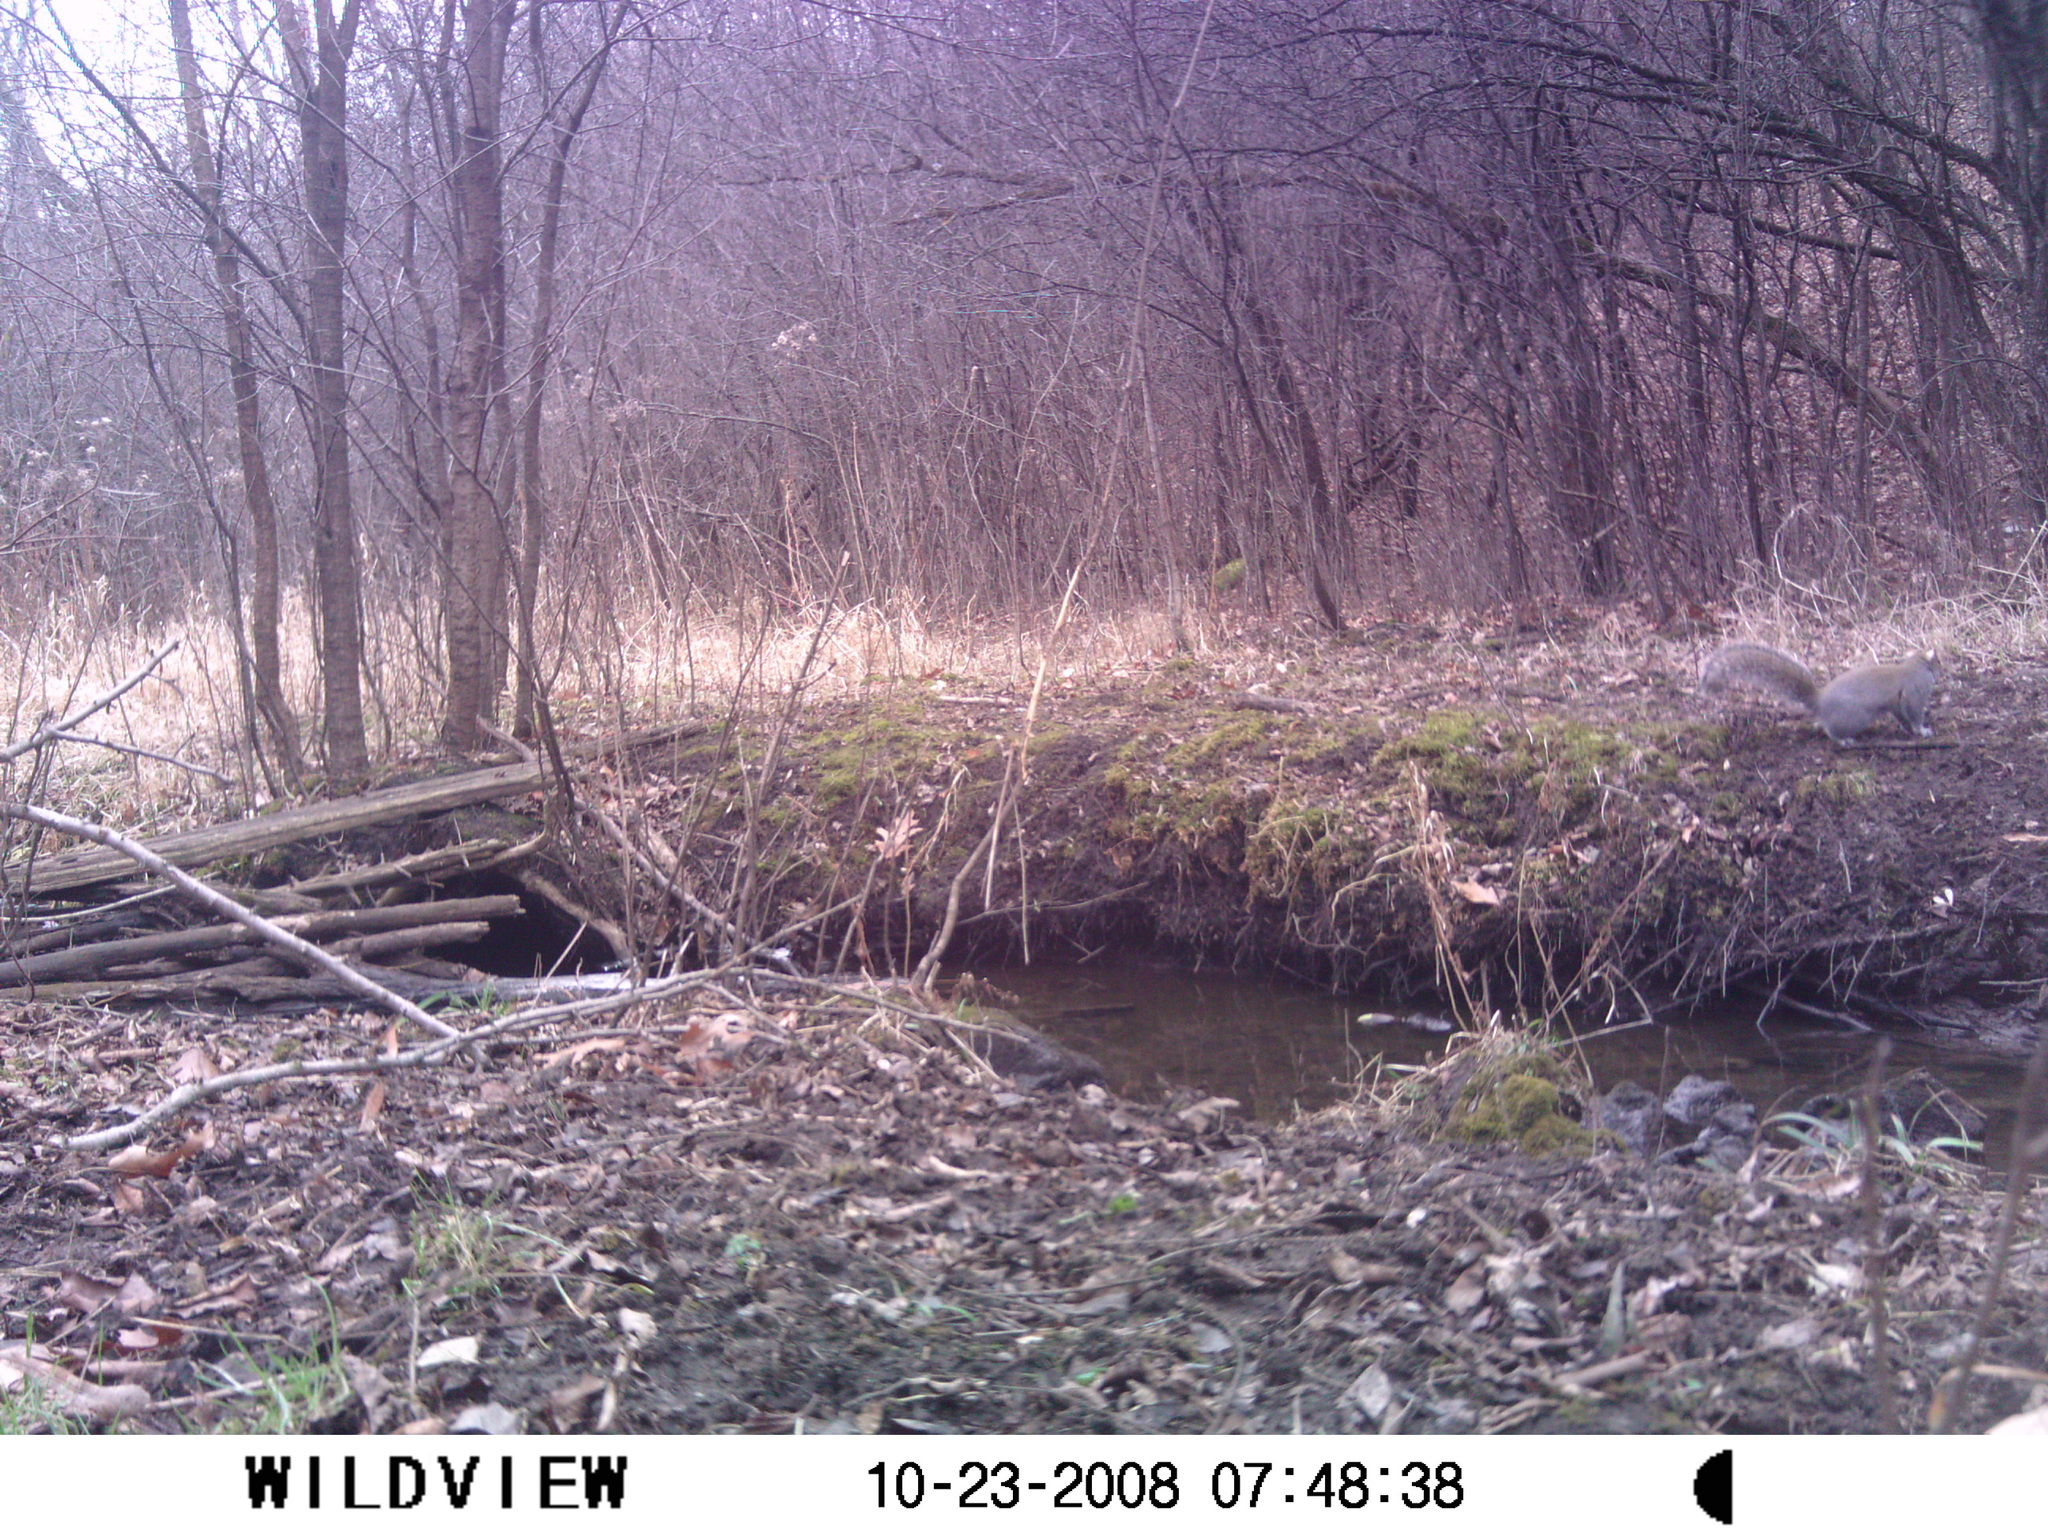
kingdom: Animalia
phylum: Chordata
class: Mammalia
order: Rodentia
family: Sciuridae
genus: Sciurus
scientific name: Sciurus carolinensis
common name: Eastern gray squirrel
